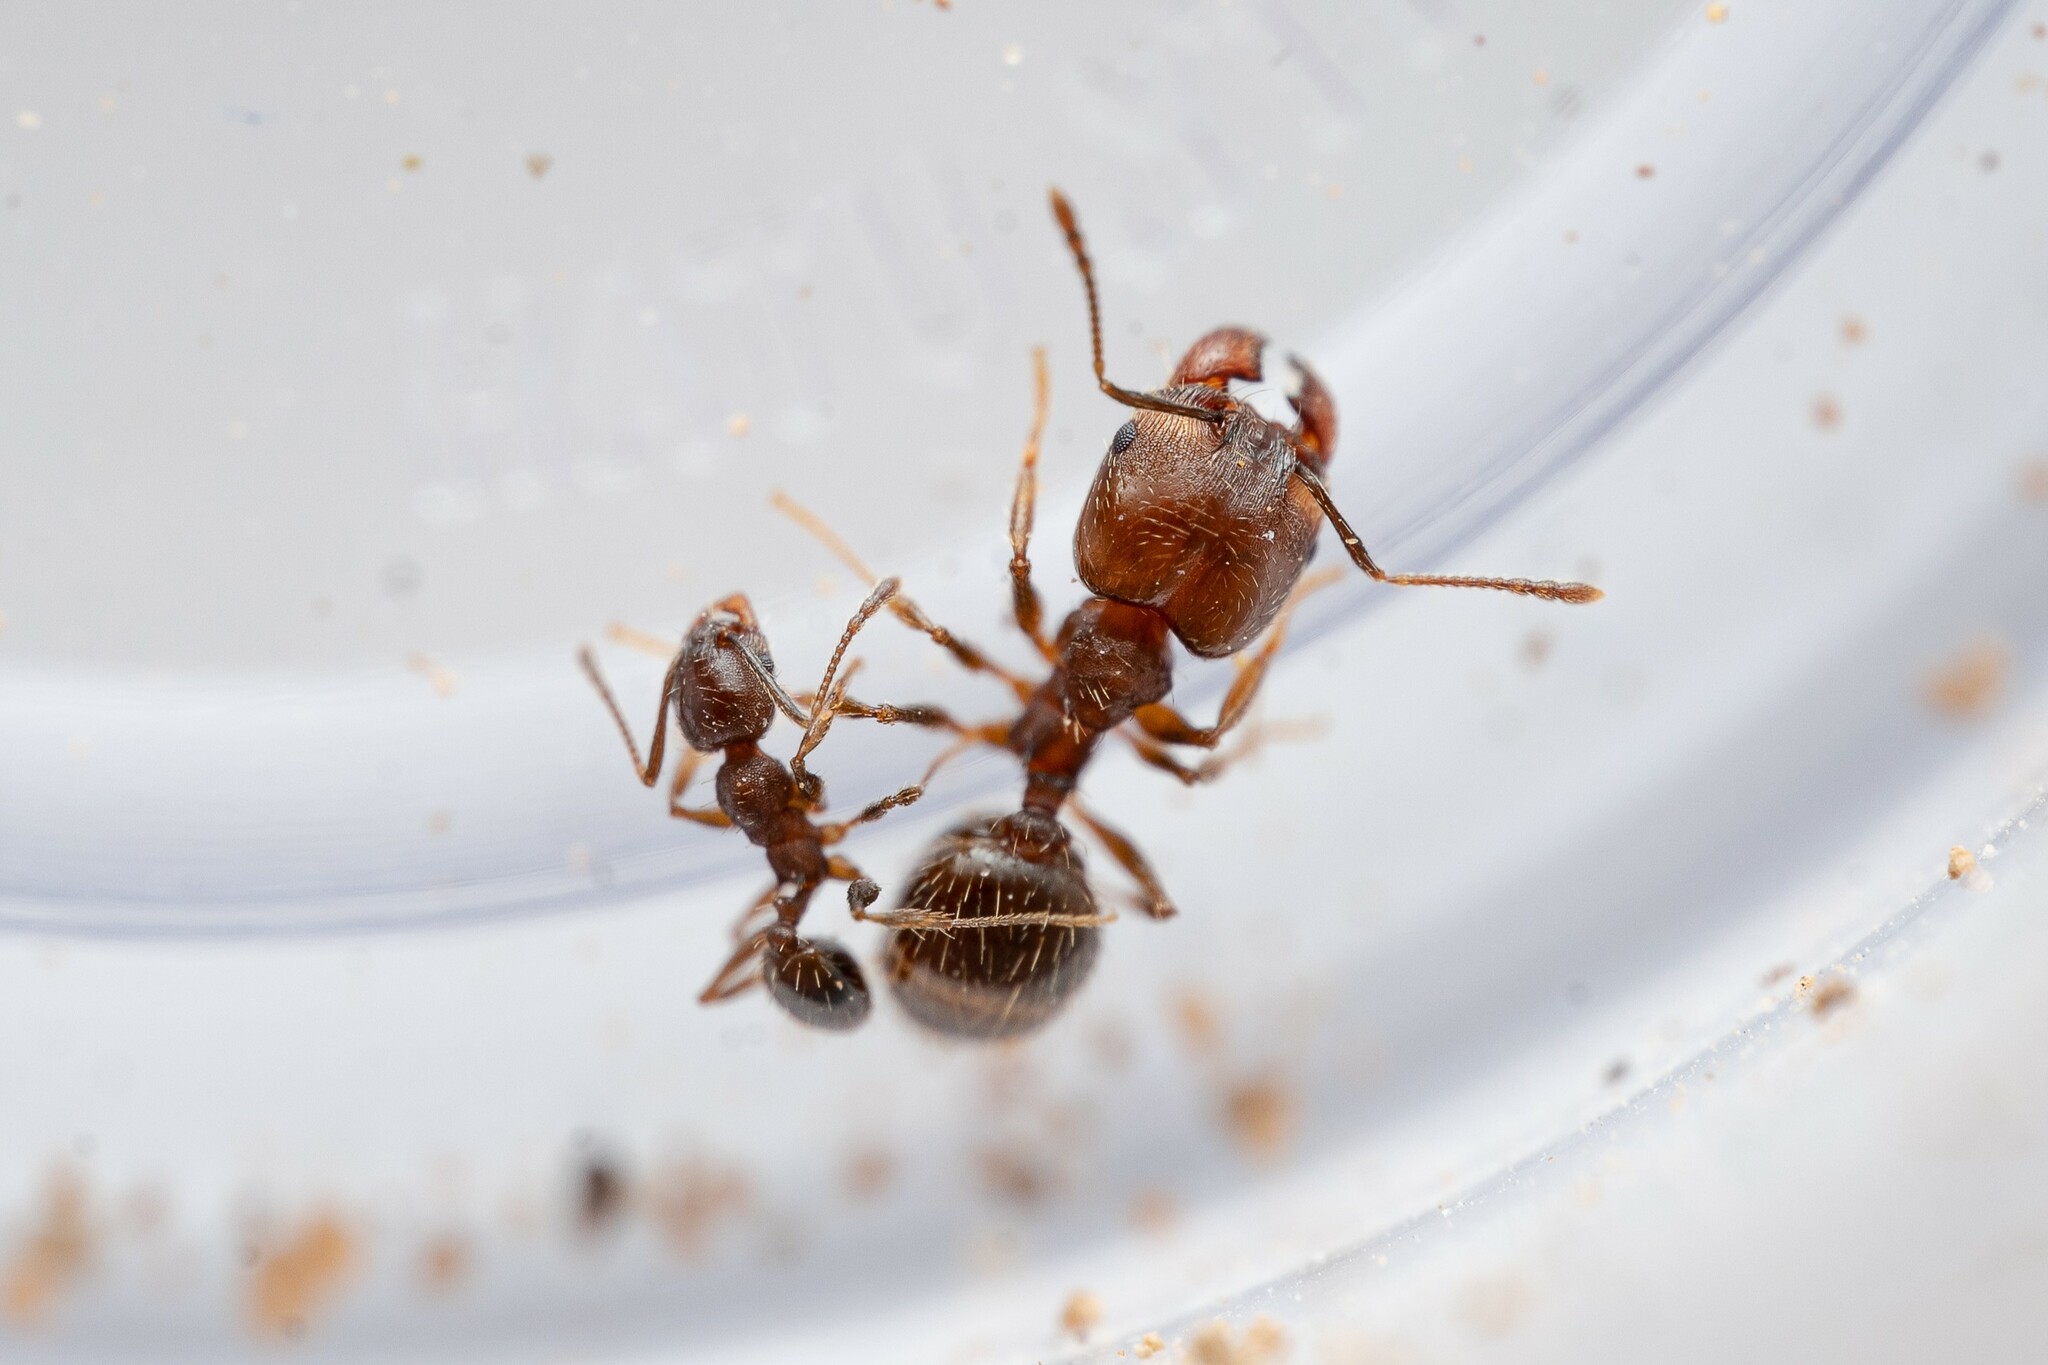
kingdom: Animalia
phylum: Arthropoda
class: Insecta
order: Hymenoptera
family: Formicidae
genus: Pheidole
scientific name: Pheidole sciophila
